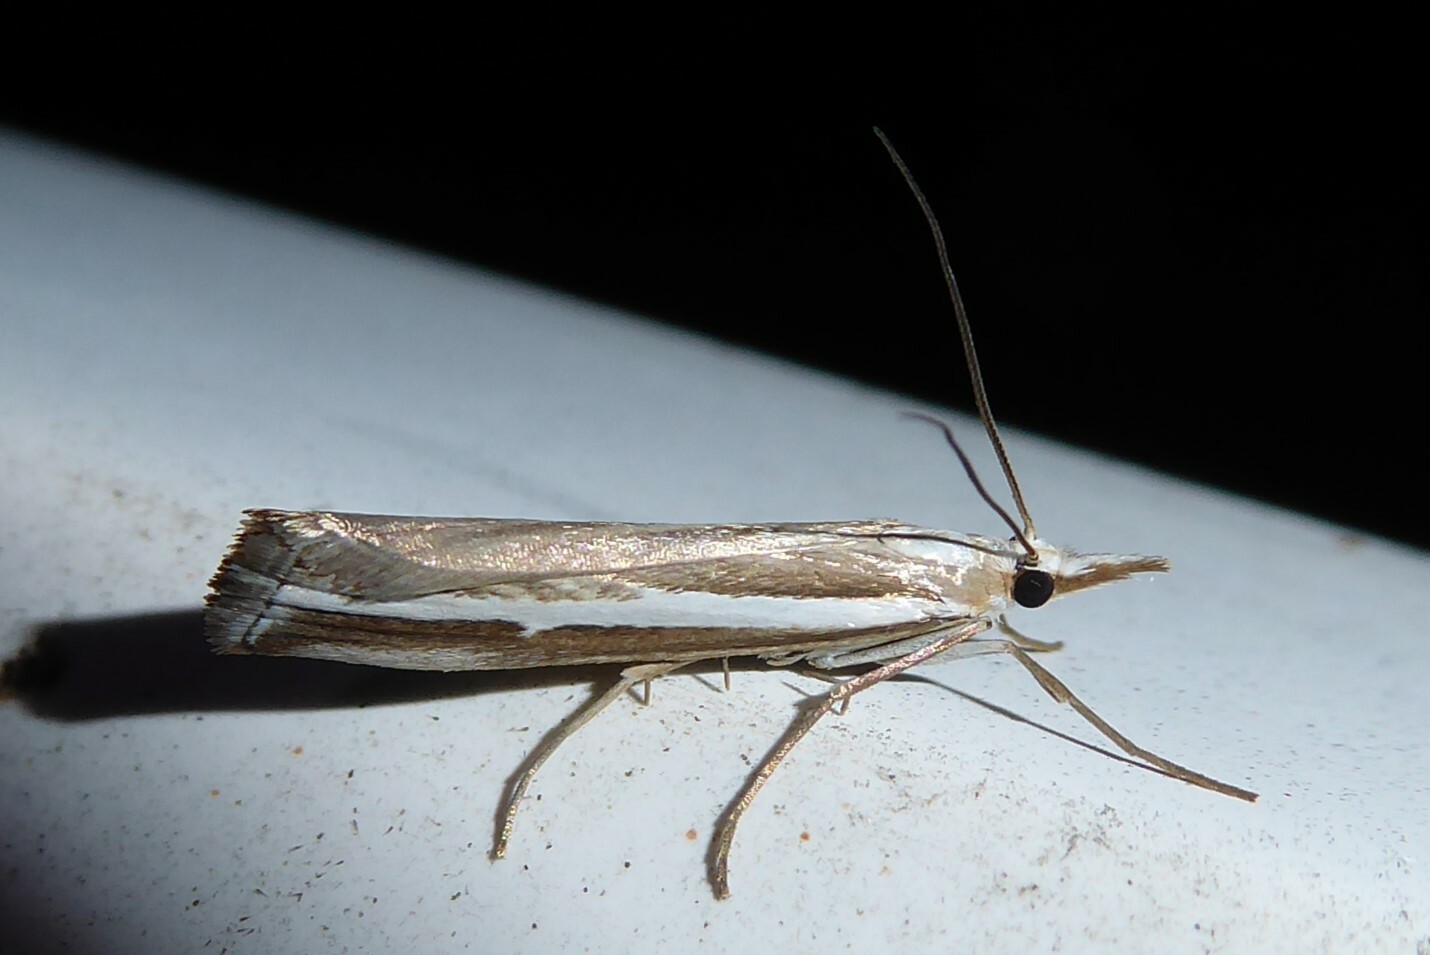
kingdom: Animalia
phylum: Arthropoda
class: Insecta
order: Lepidoptera
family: Crambidae
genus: Orocrambus
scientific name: Orocrambus vittellus
